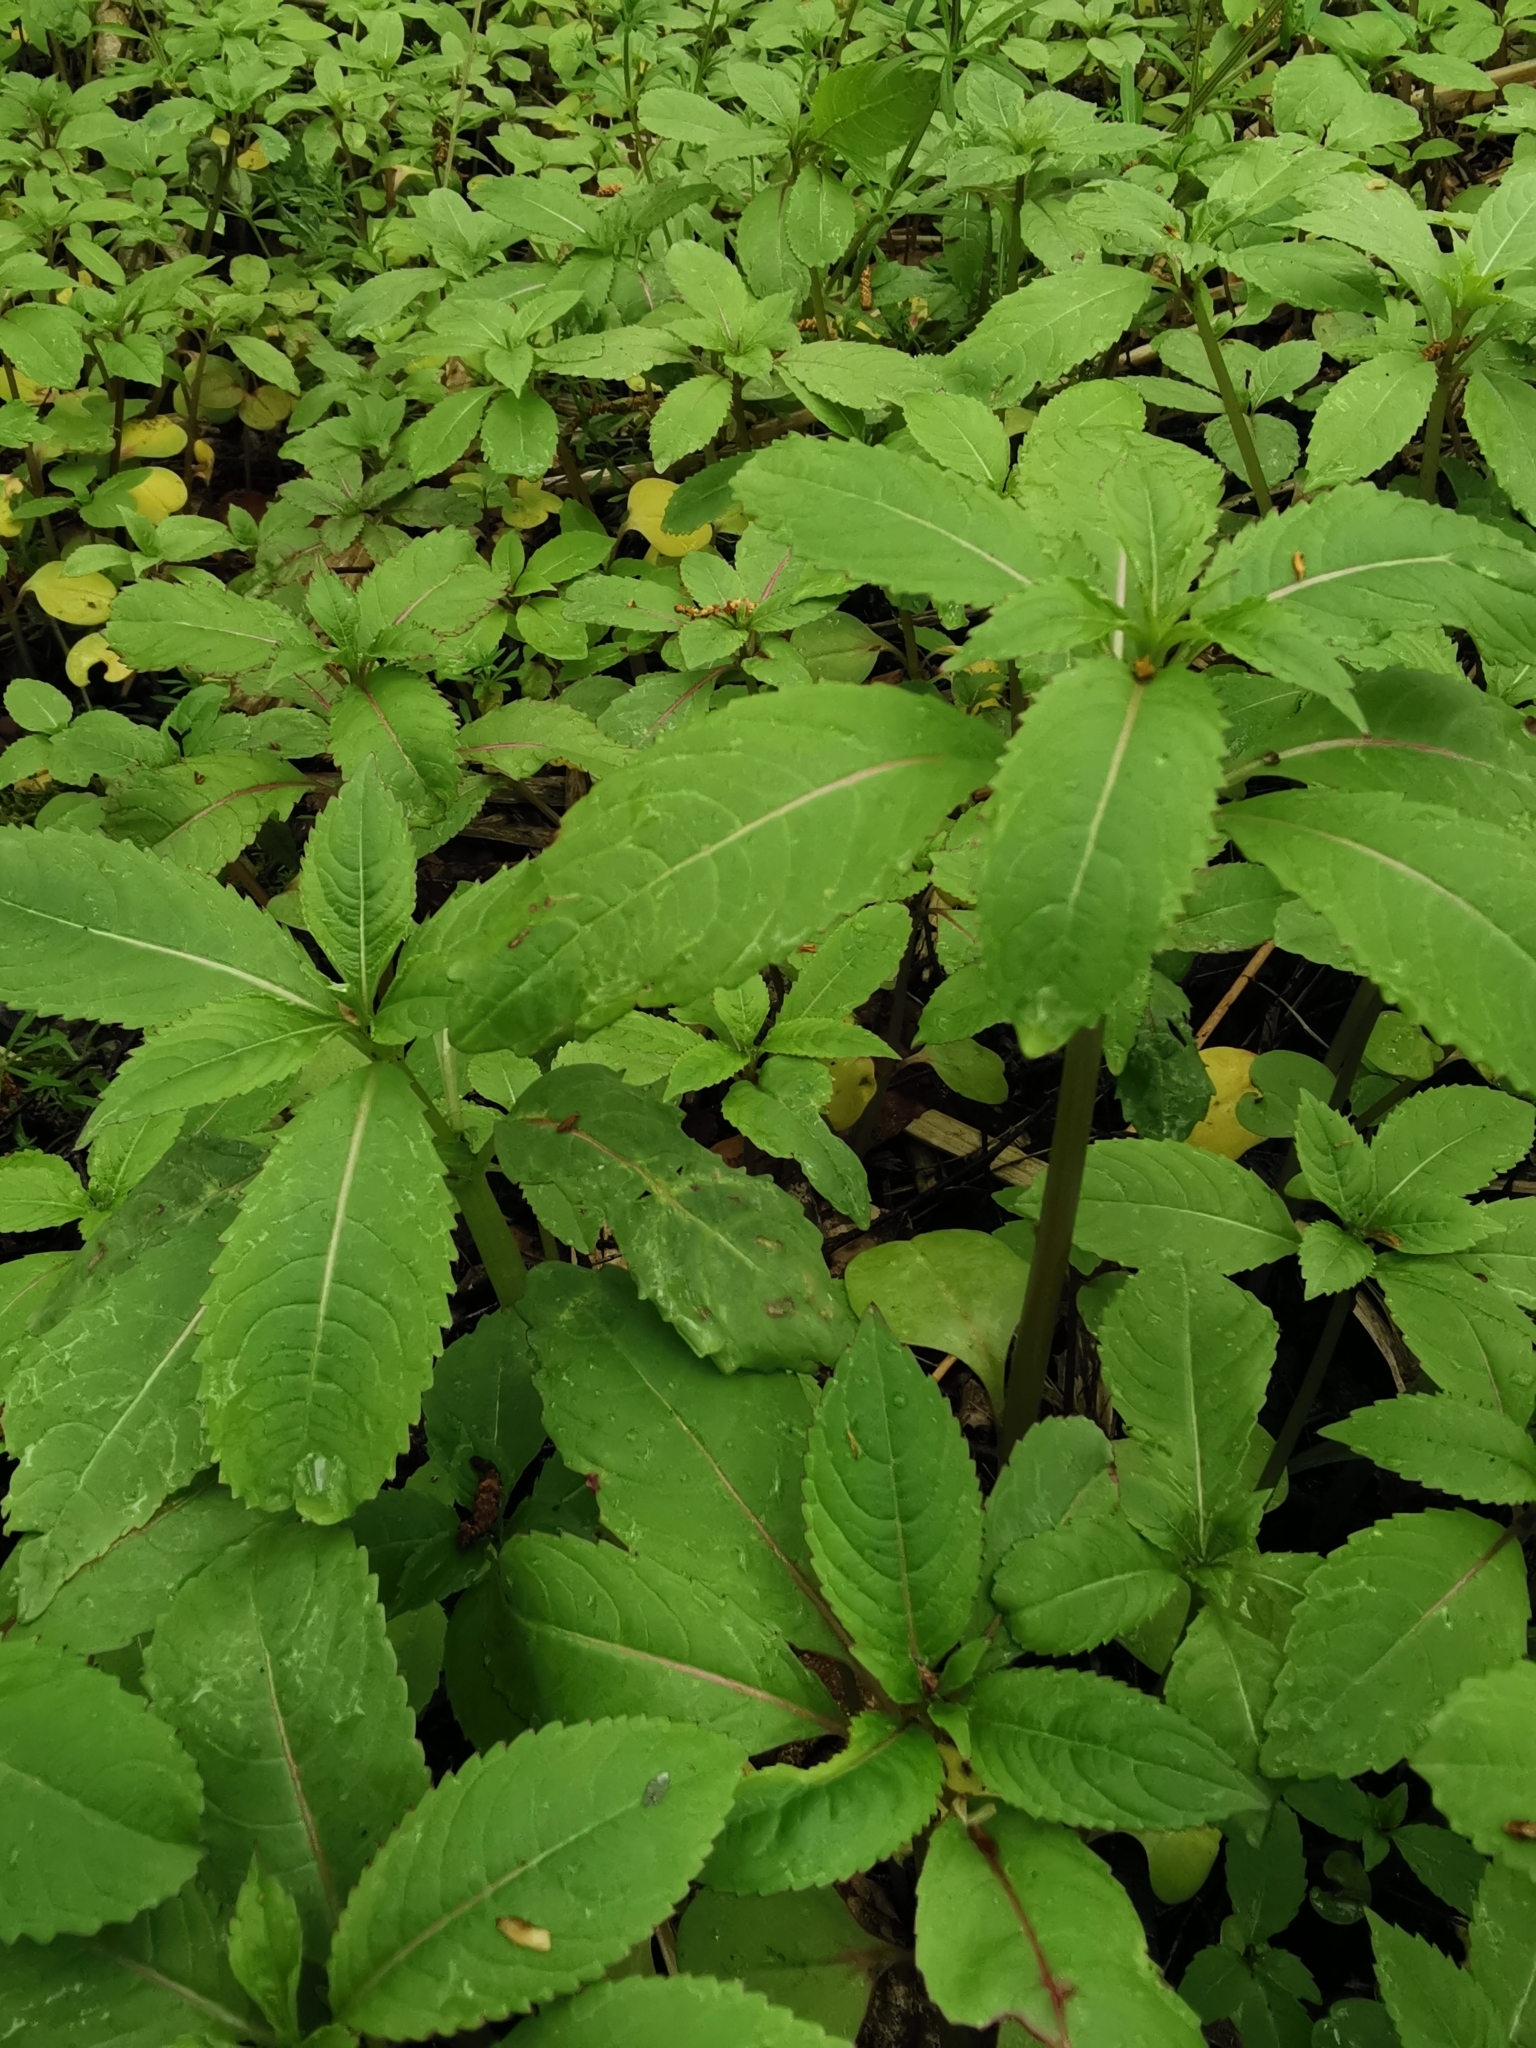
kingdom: Plantae
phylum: Tracheophyta
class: Magnoliopsida
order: Ericales
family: Balsaminaceae
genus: Impatiens
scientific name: Impatiens glandulifera
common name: Himalayan balsam
